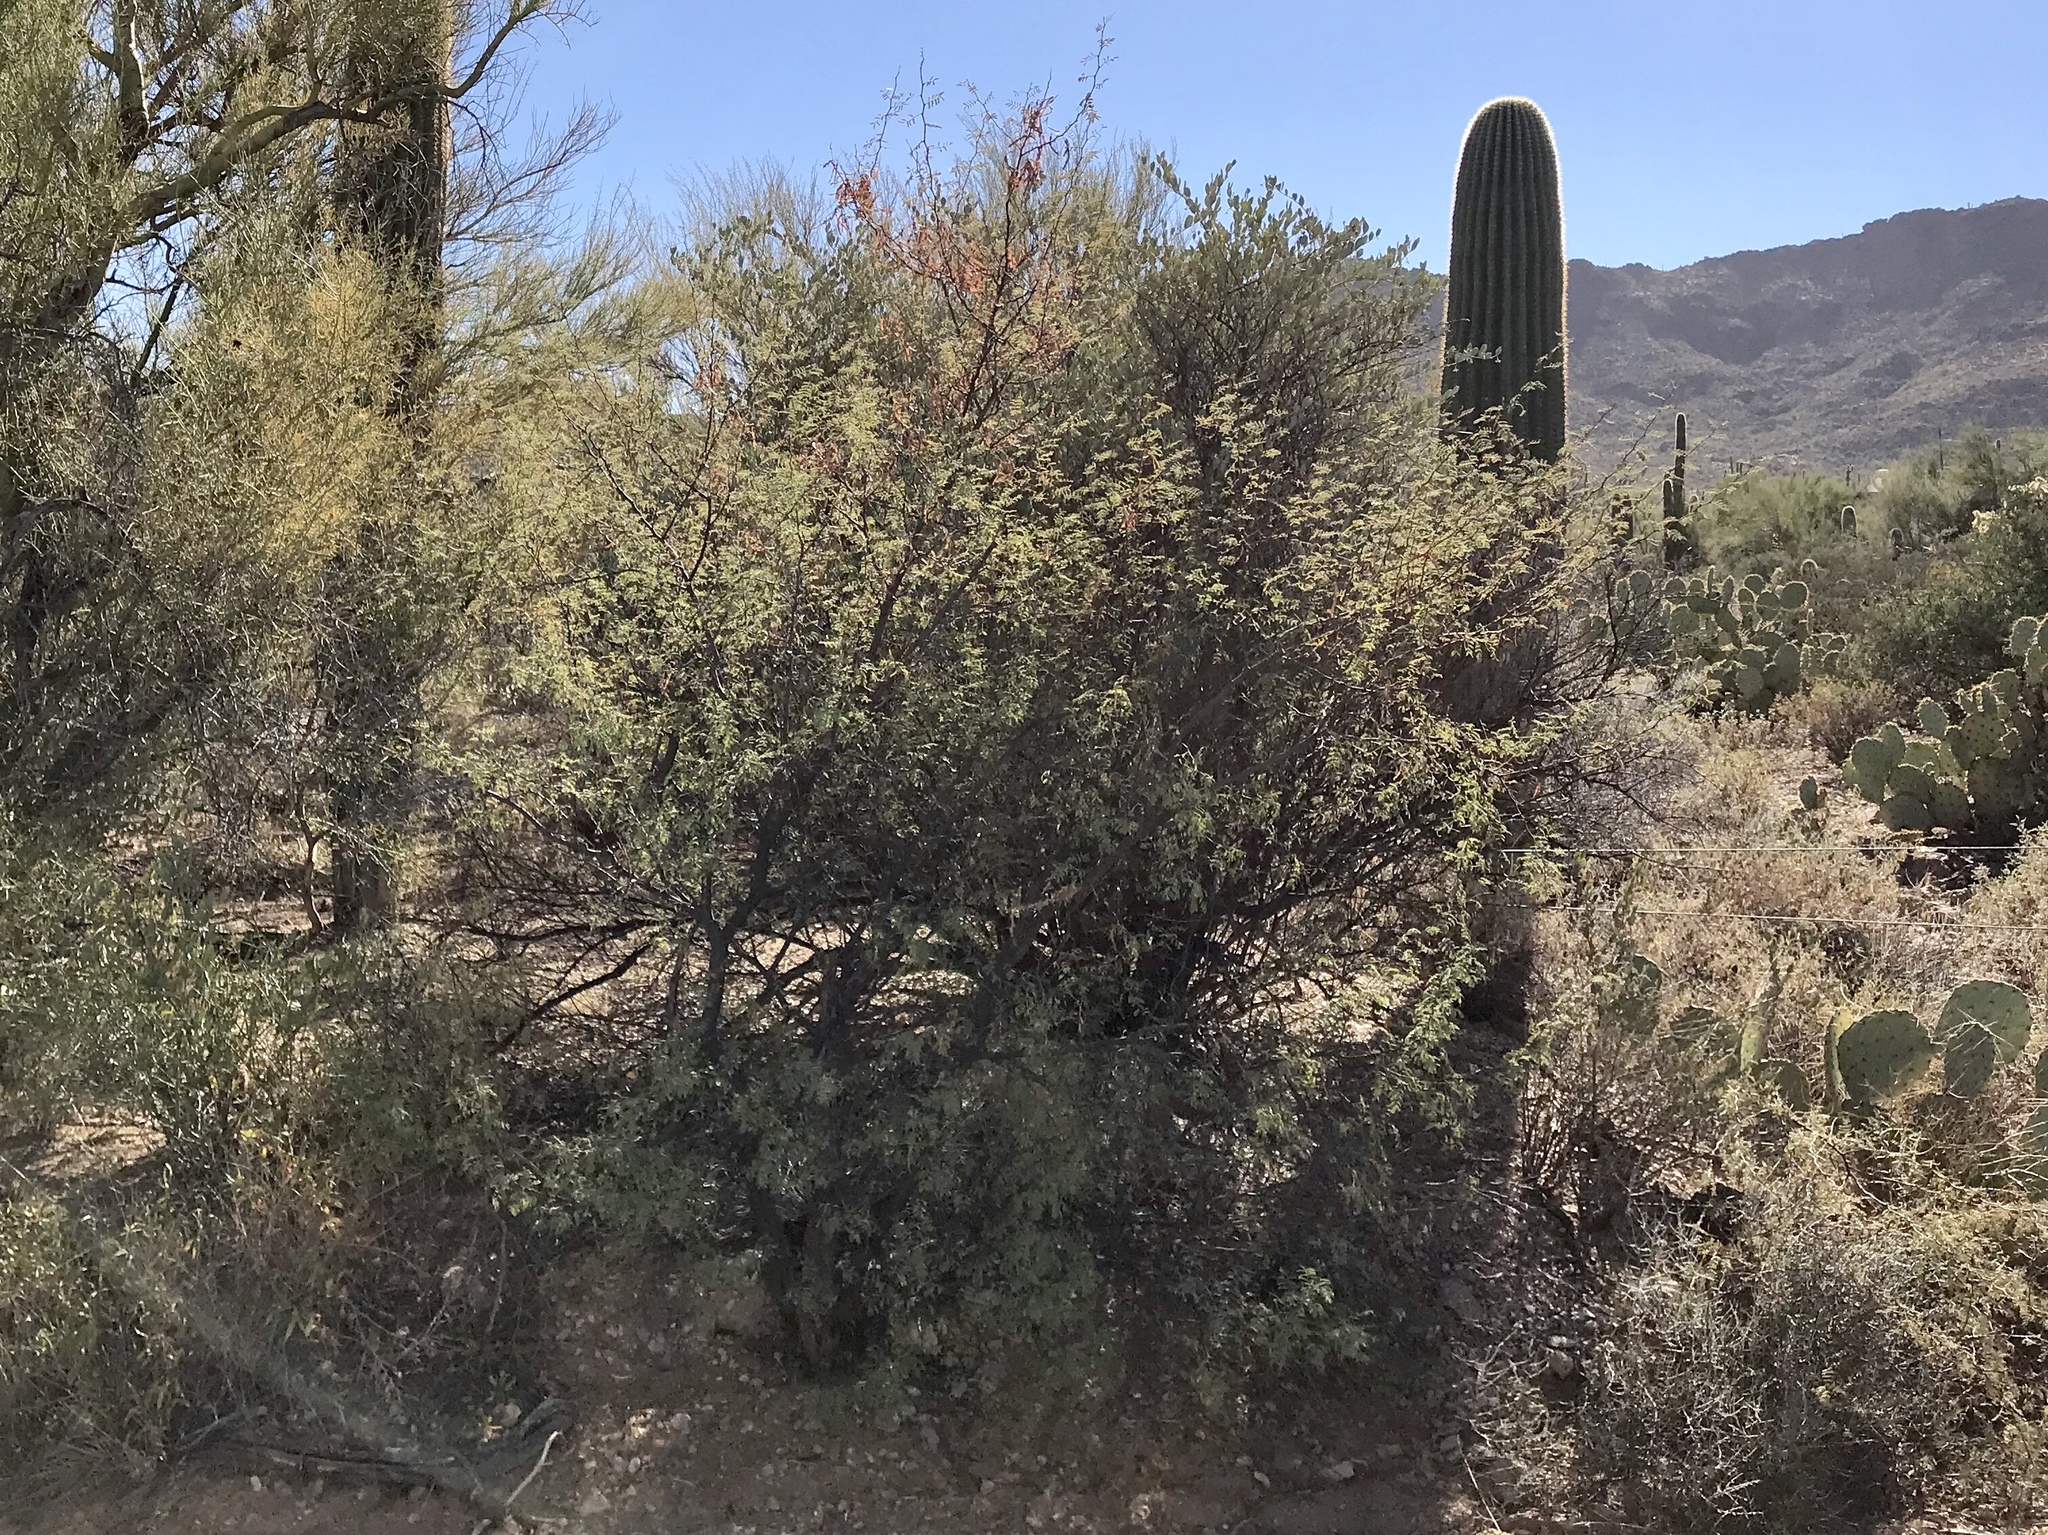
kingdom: Plantae
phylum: Tracheophyta
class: Magnoliopsida
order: Fabales
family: Fabaceae
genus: Vachellia
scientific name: Vachellia constricta
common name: Mescat acacia
